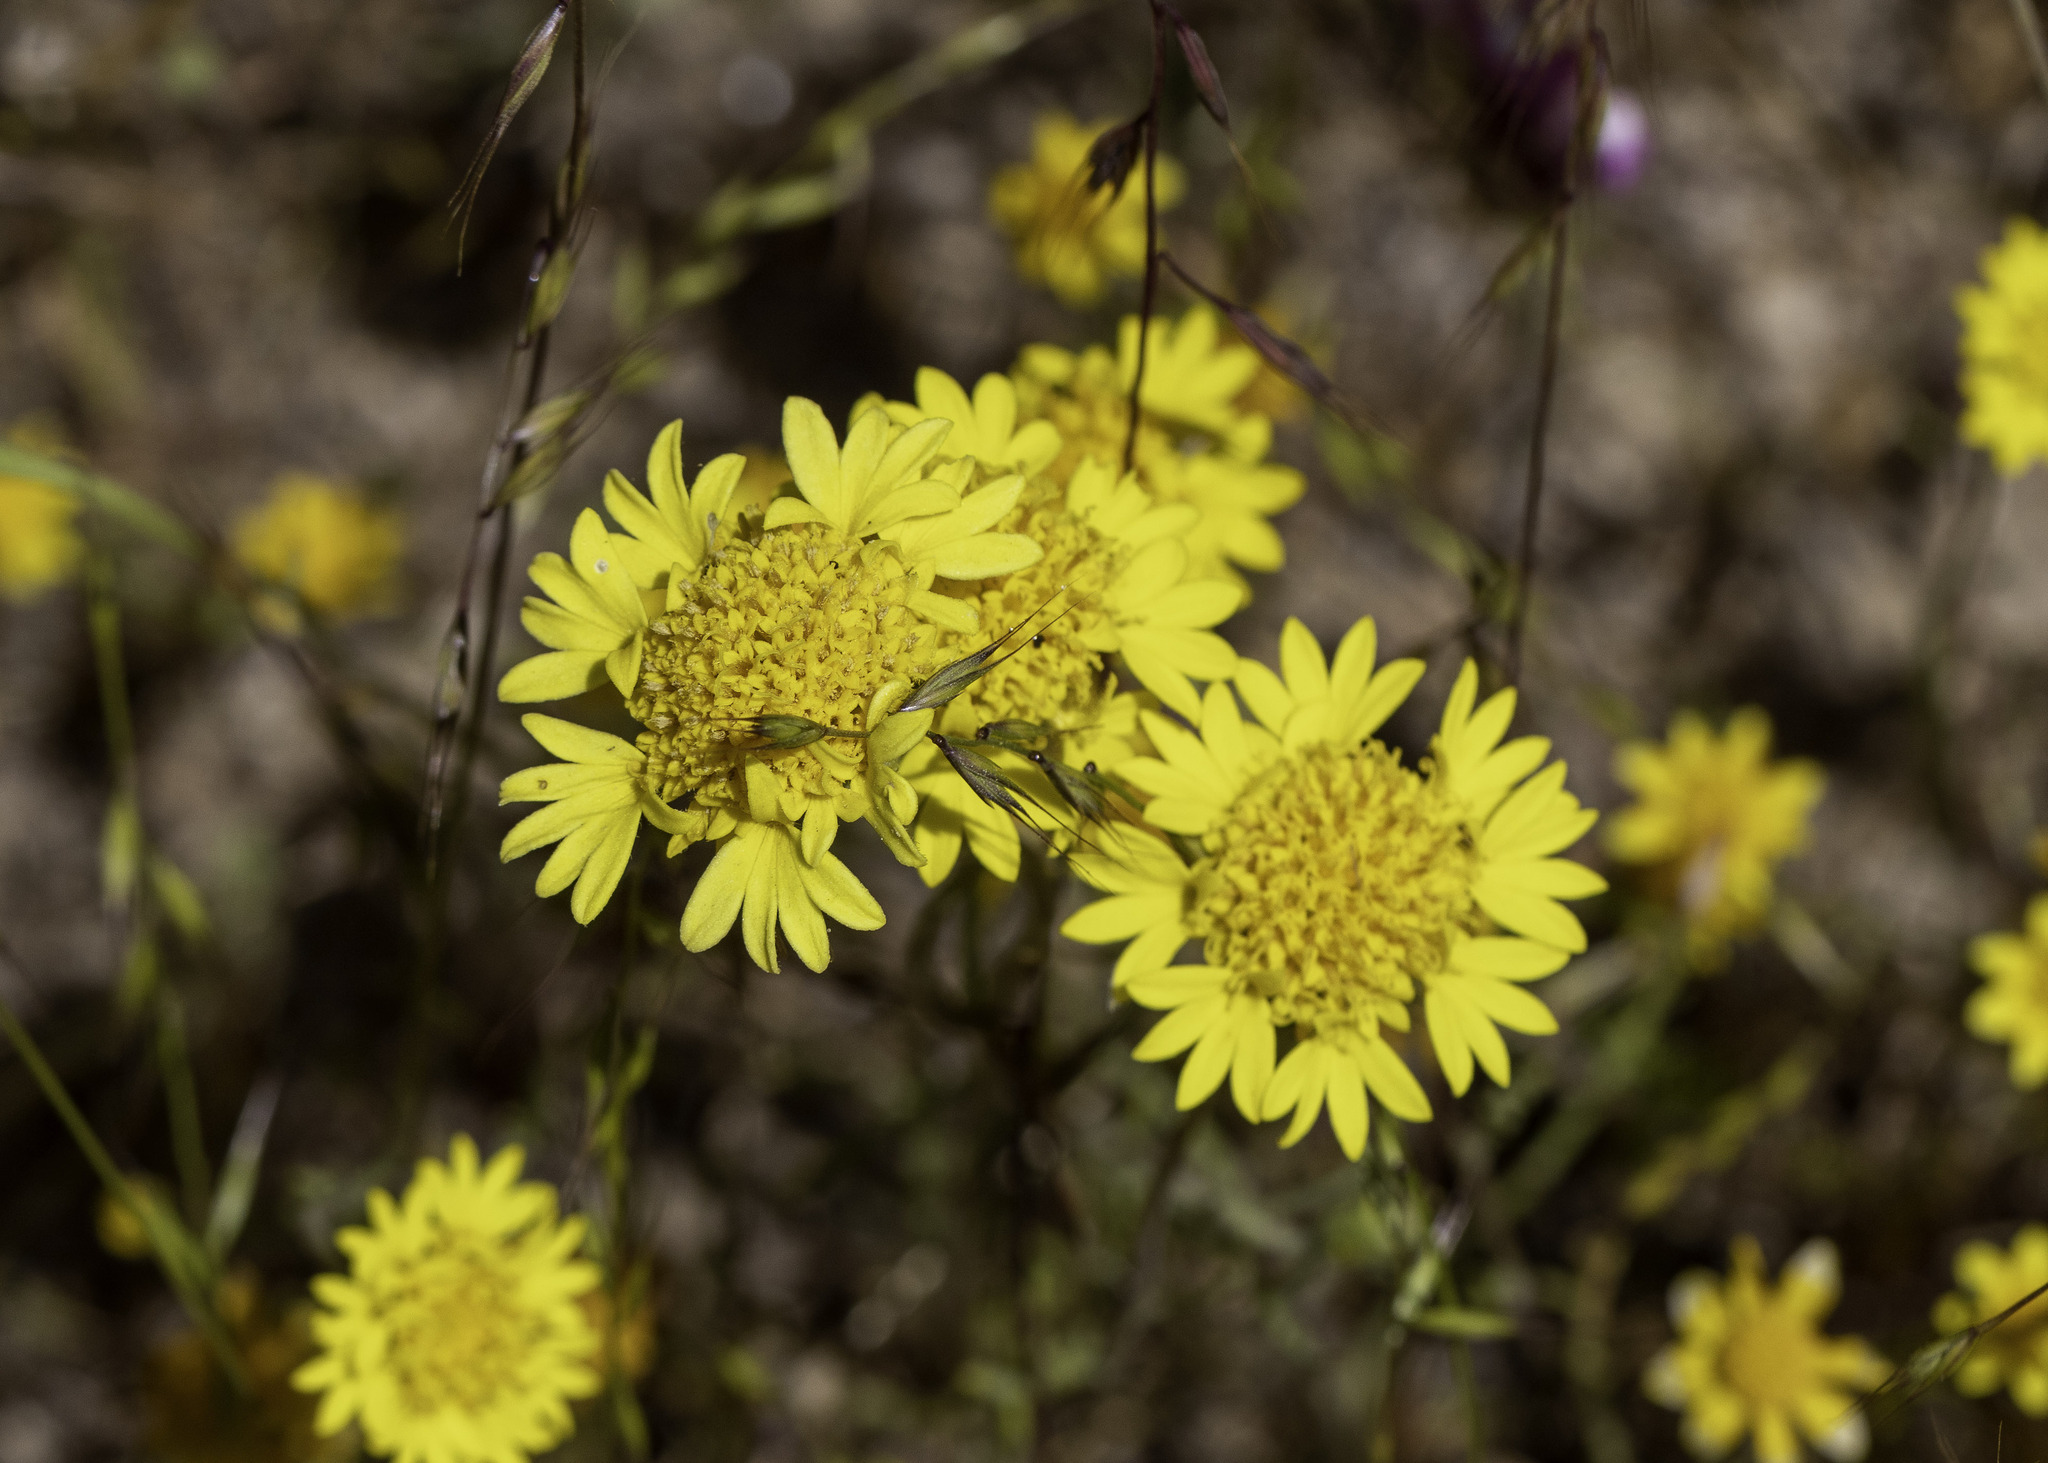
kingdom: Plantae
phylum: Tracheophyta
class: Magnoliopsida
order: Asterales
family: Asteraceae
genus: Chaenactis
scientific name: Chaenactis glabriuscula
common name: Yellow pincushion
